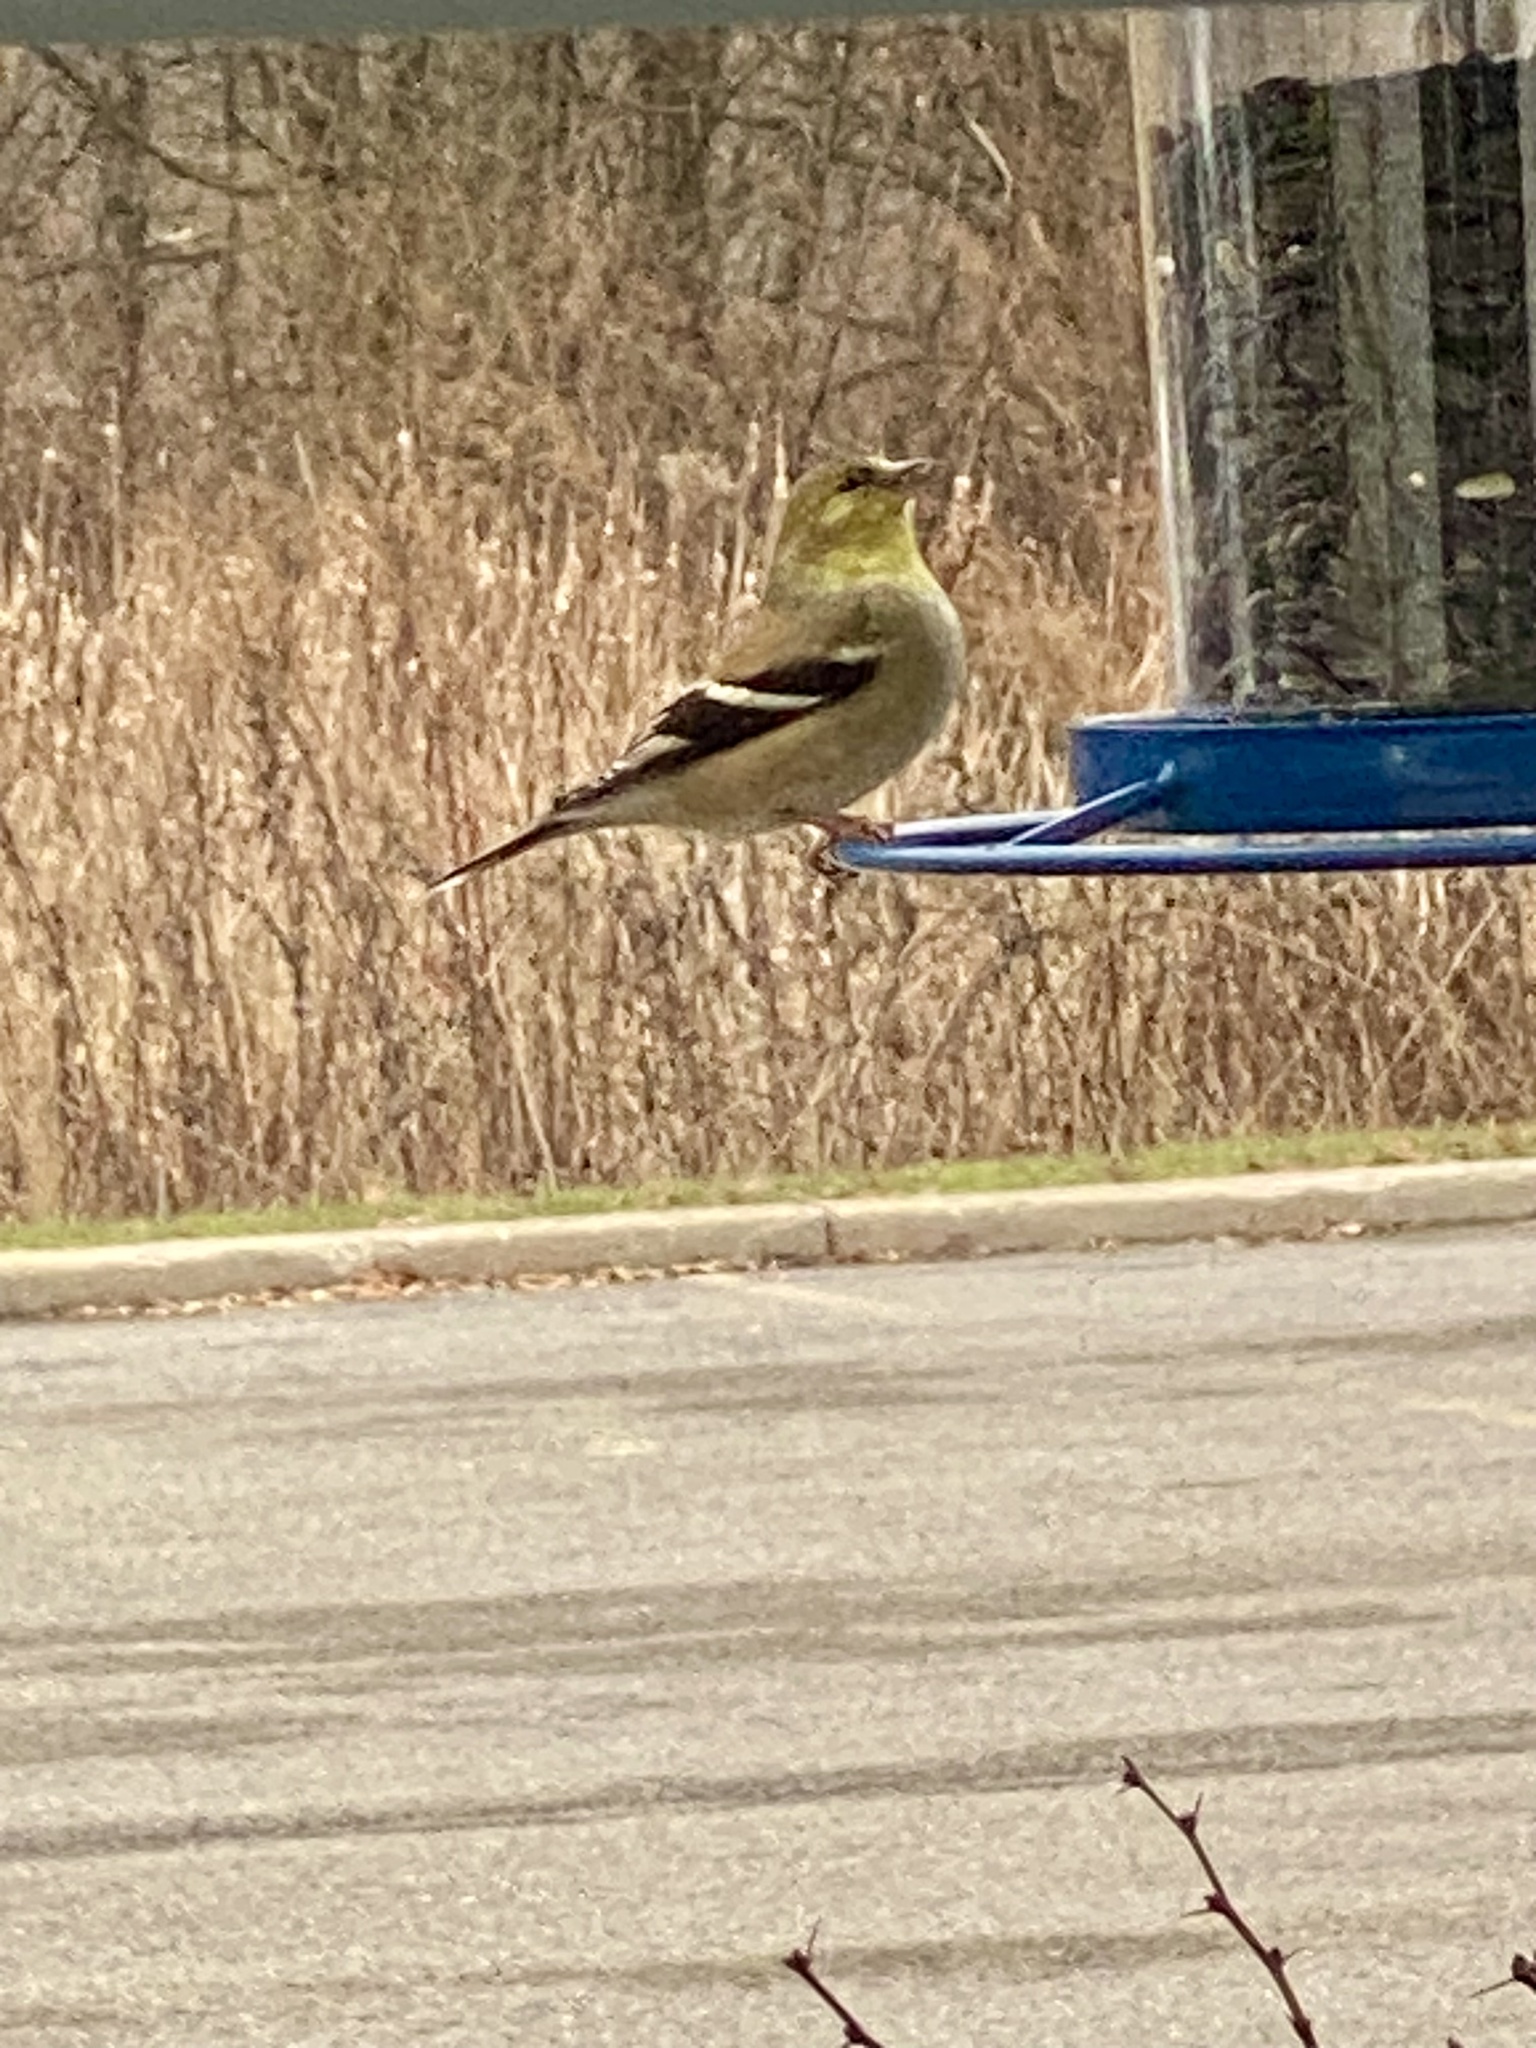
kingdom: Animalia
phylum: Chordata
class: Aves
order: Passeriformes
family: Fringillidae
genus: Spinus
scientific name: Spinus tristis
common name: American goldfinch
